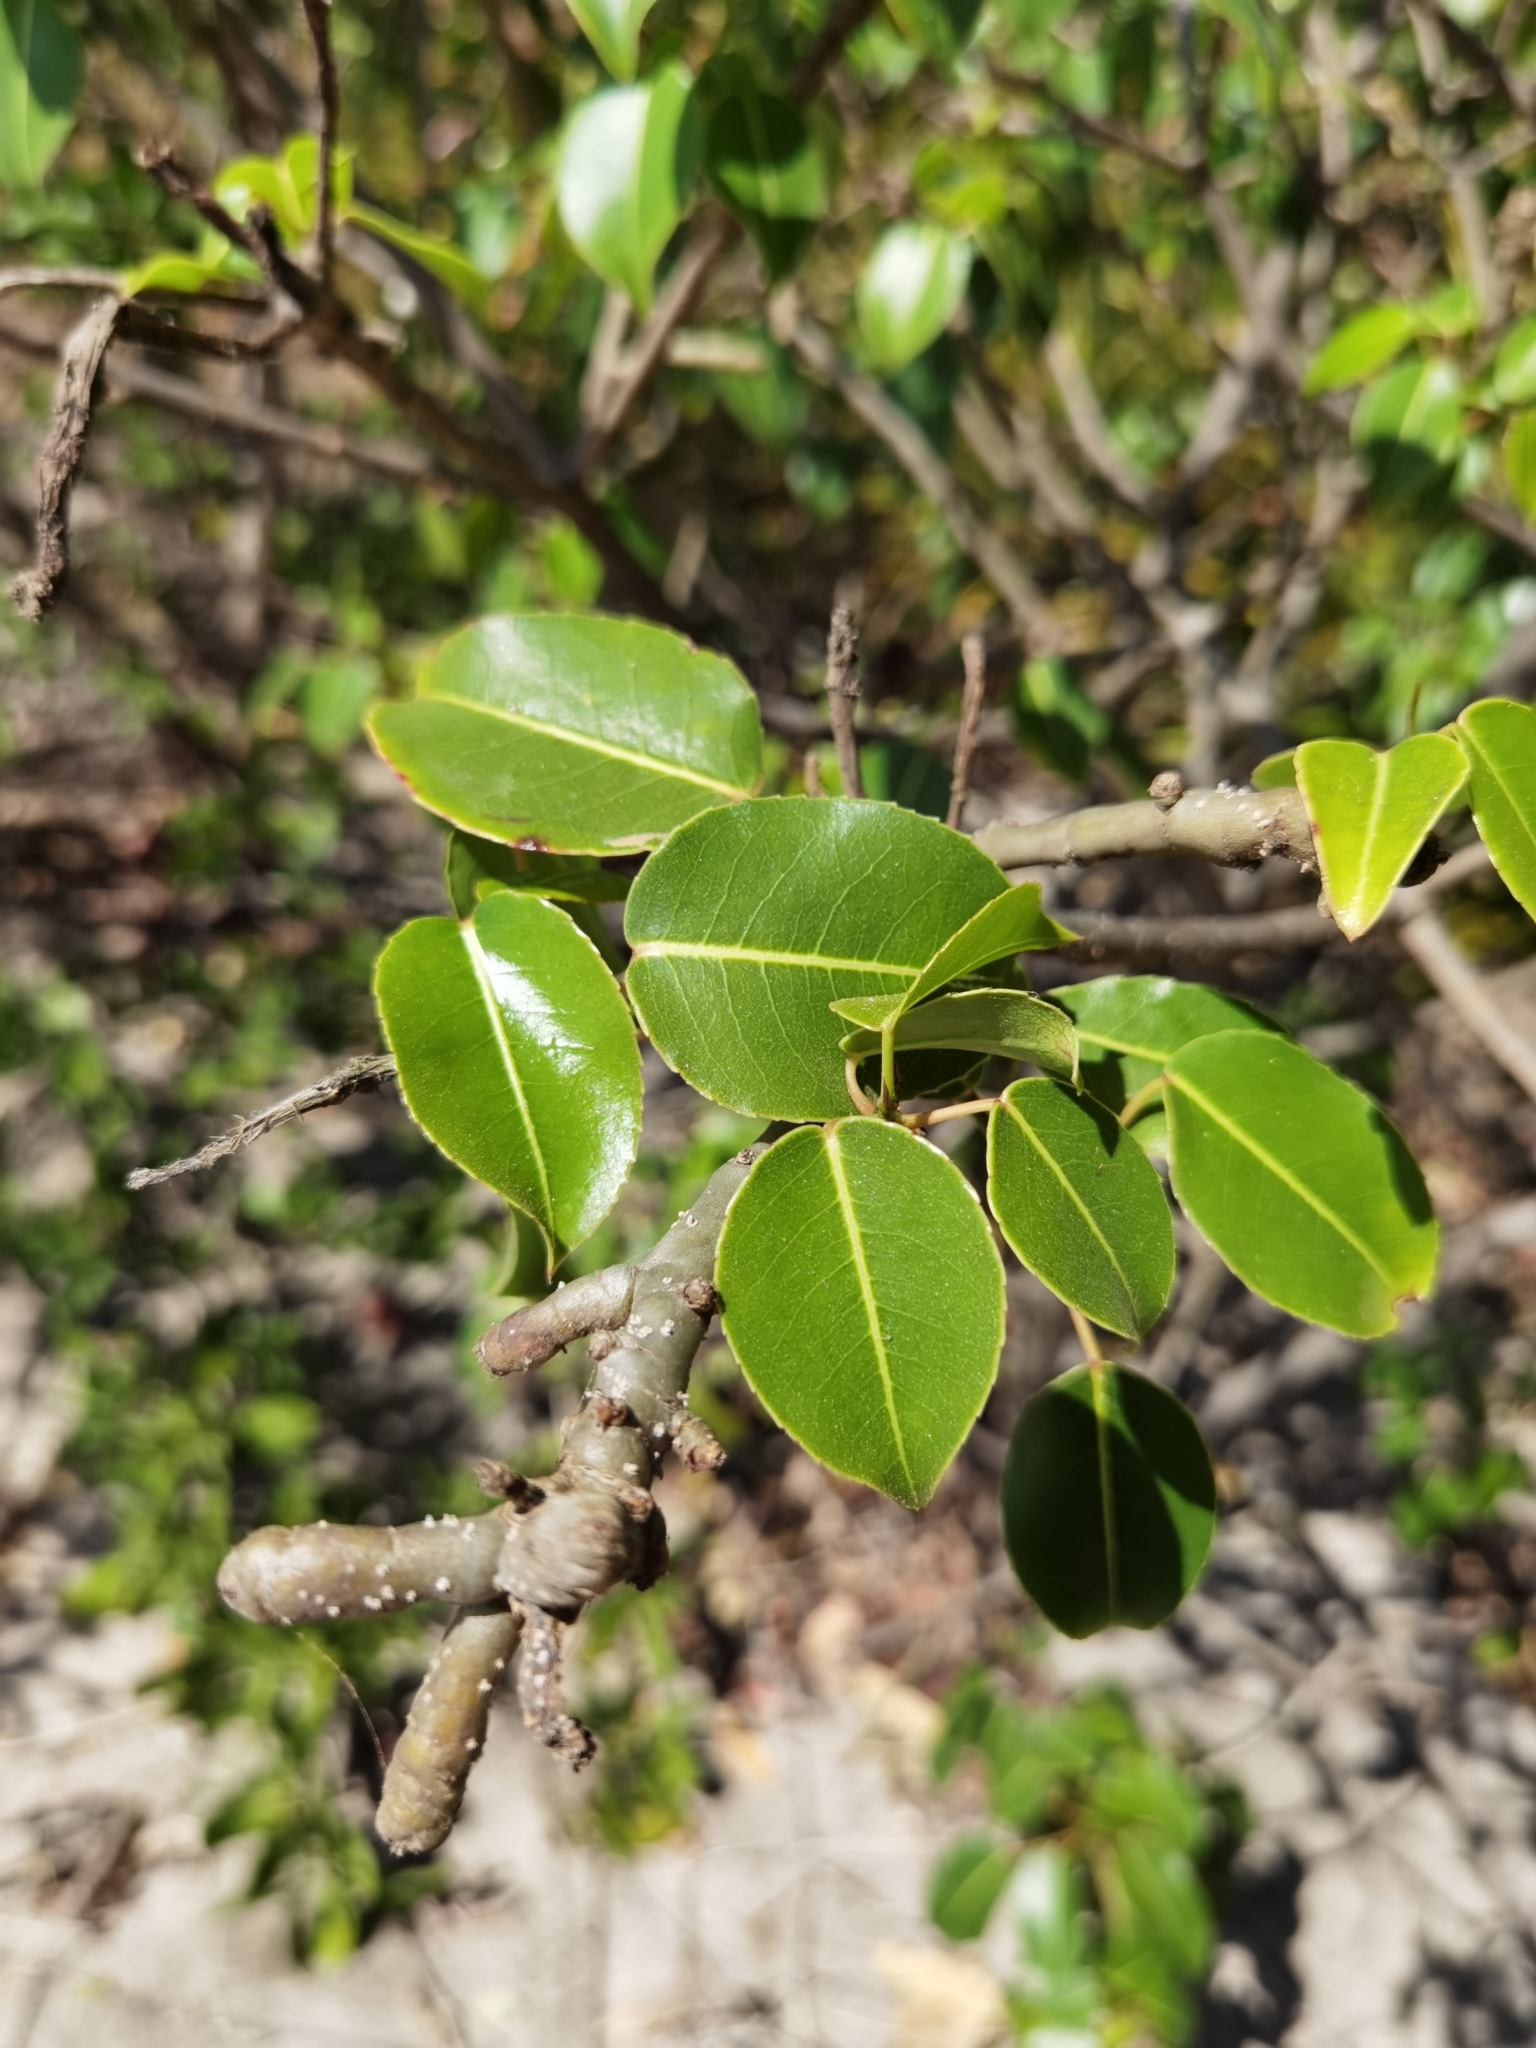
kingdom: Plantae
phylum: Tracheophyta
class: Magnoliopsida
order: Malpighiales
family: Euphorbiaceae
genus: Hippomane
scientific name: Hippomane mancinella
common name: Manchineel
